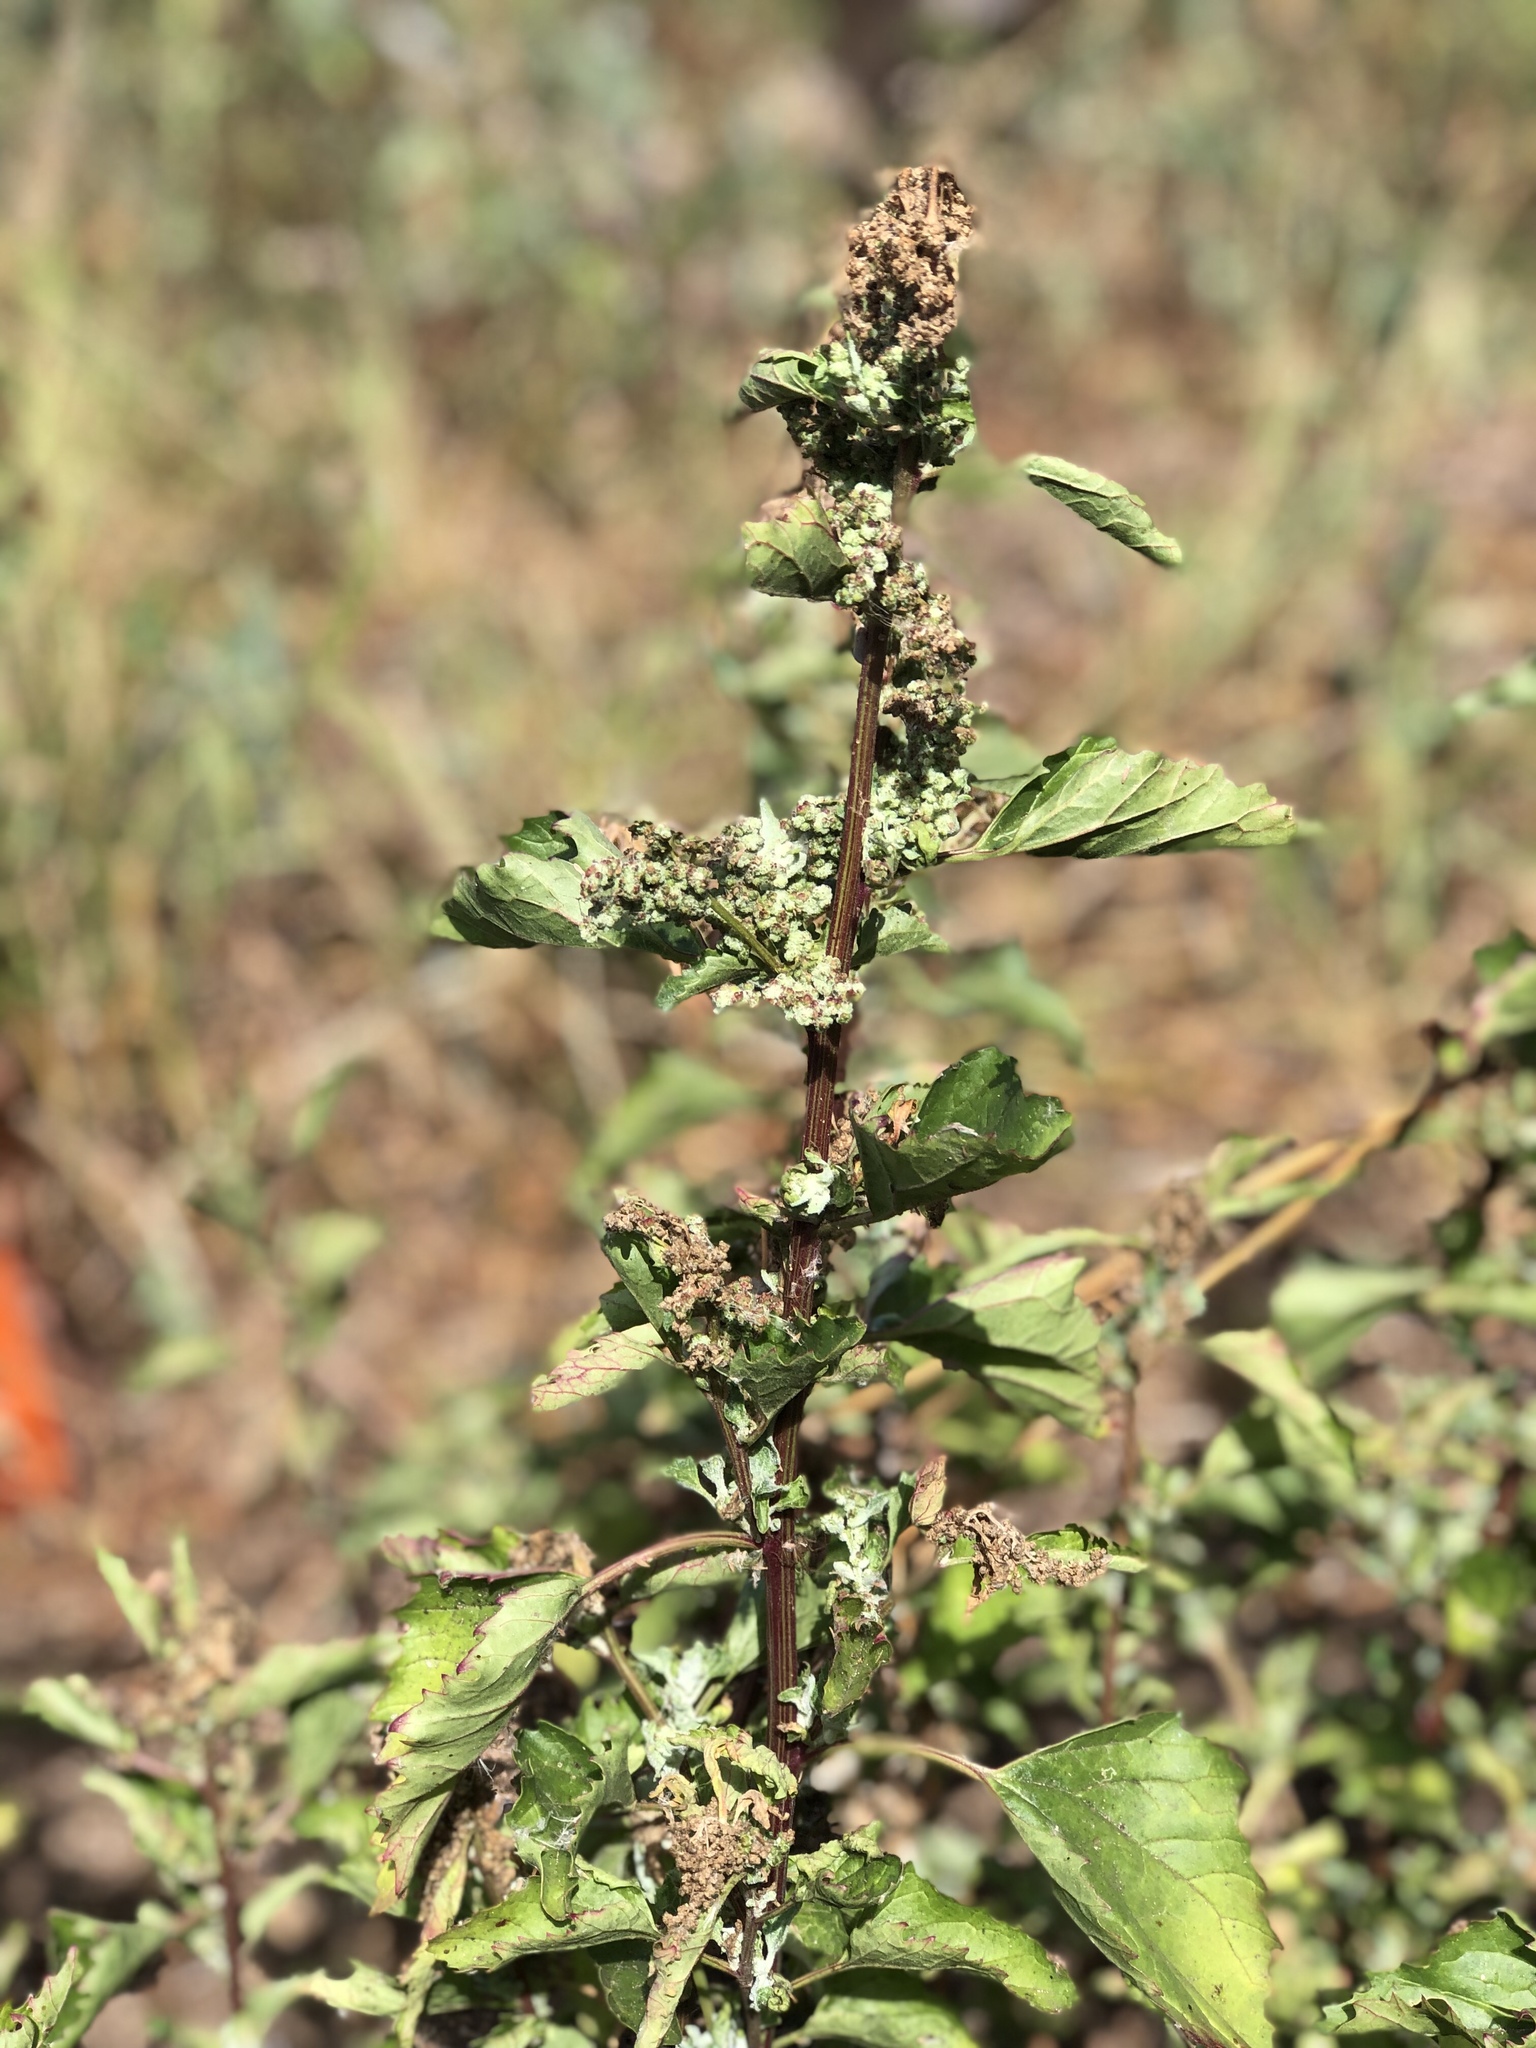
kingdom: Plantae
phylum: Tracheophyta
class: Magnoliopsida
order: Caryophyllales
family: Amaranthaceae
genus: Chenopodium
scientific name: Chenopodium album
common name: Fat-hen
